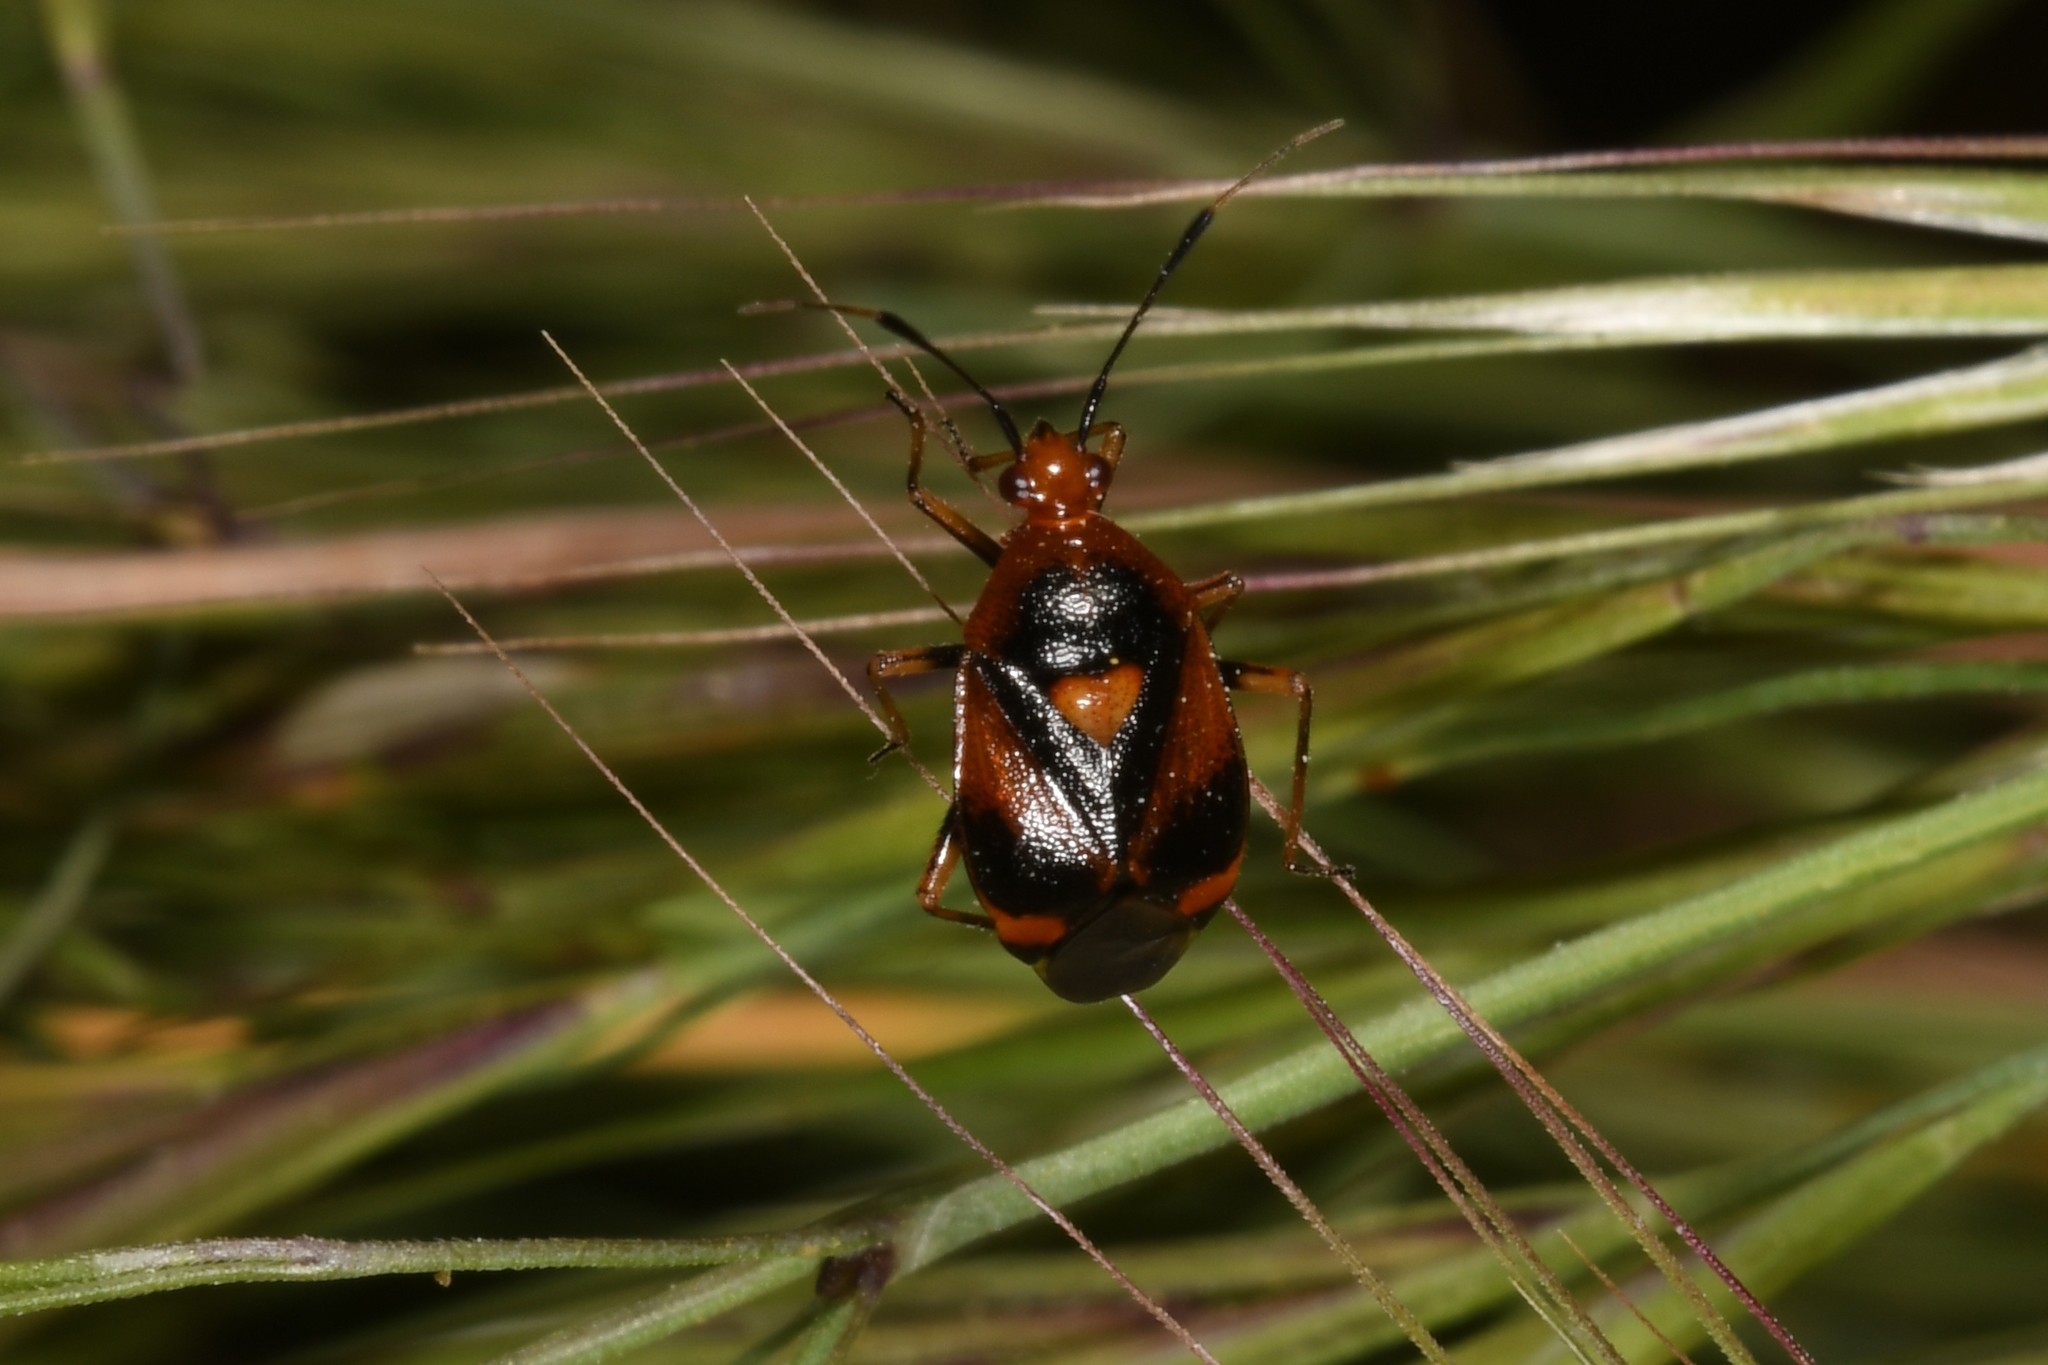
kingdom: Animalia
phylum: Arthropoda
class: Insecta
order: Hemiptera
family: Miridae
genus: Deraeocoris
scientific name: Deraeocoris ruber
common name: Plant bug
